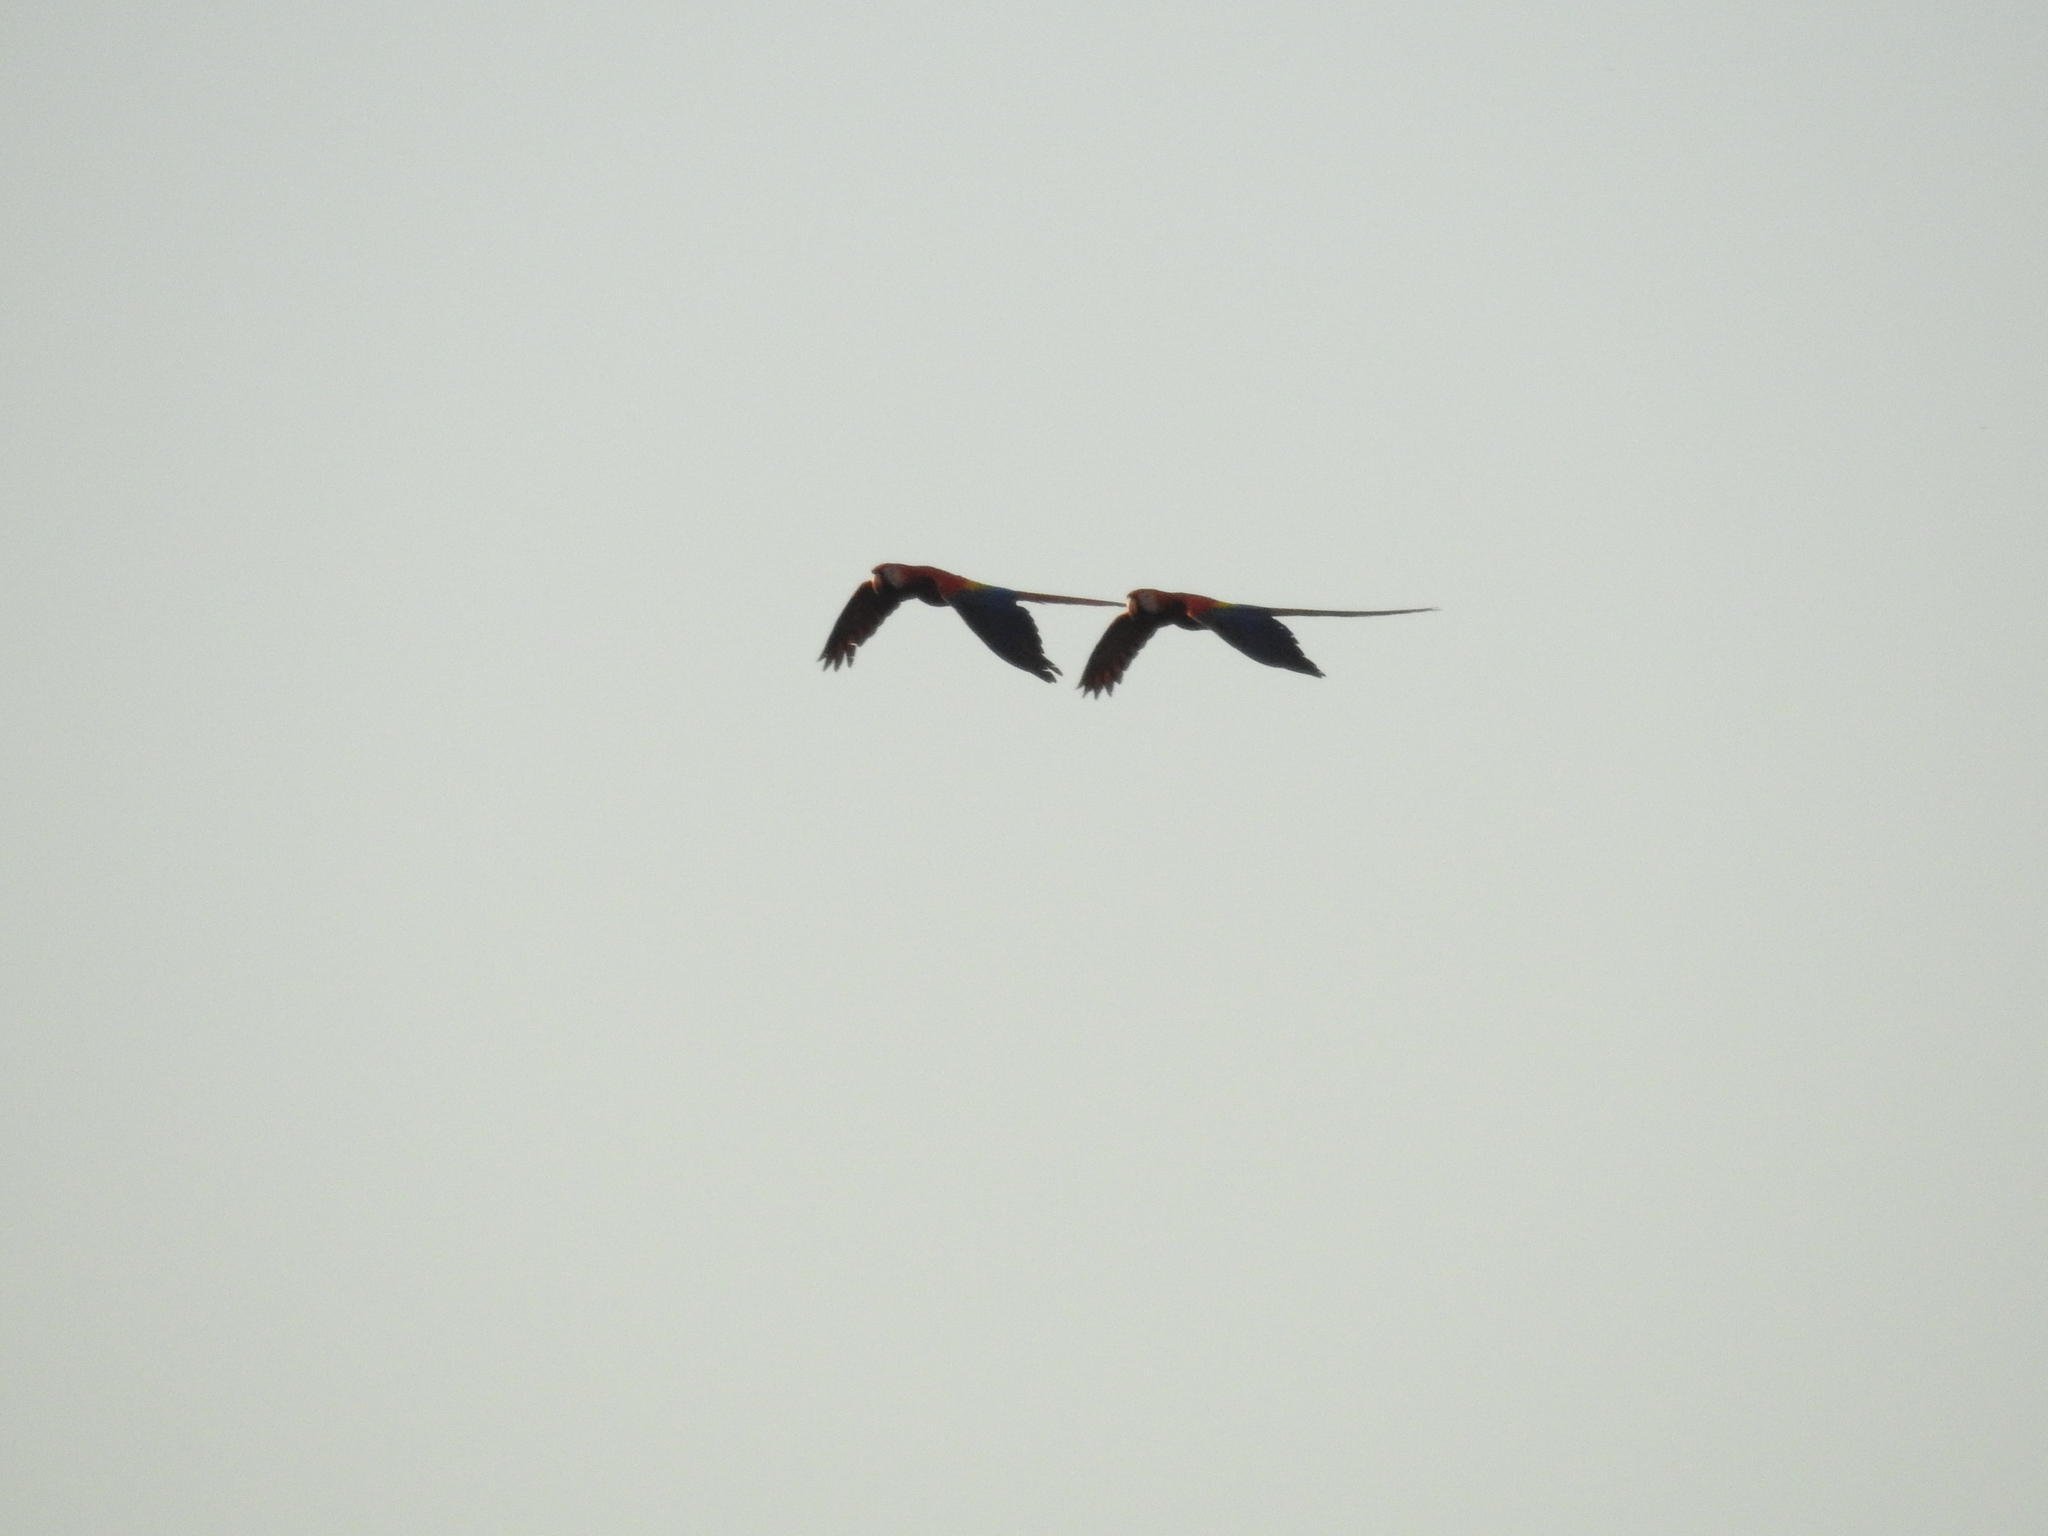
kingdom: Animalia
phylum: Chordata
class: Aves
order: Psittaciformes
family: Psittacidae
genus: Ara
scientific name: Ara macao
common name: Scarlet macaw
